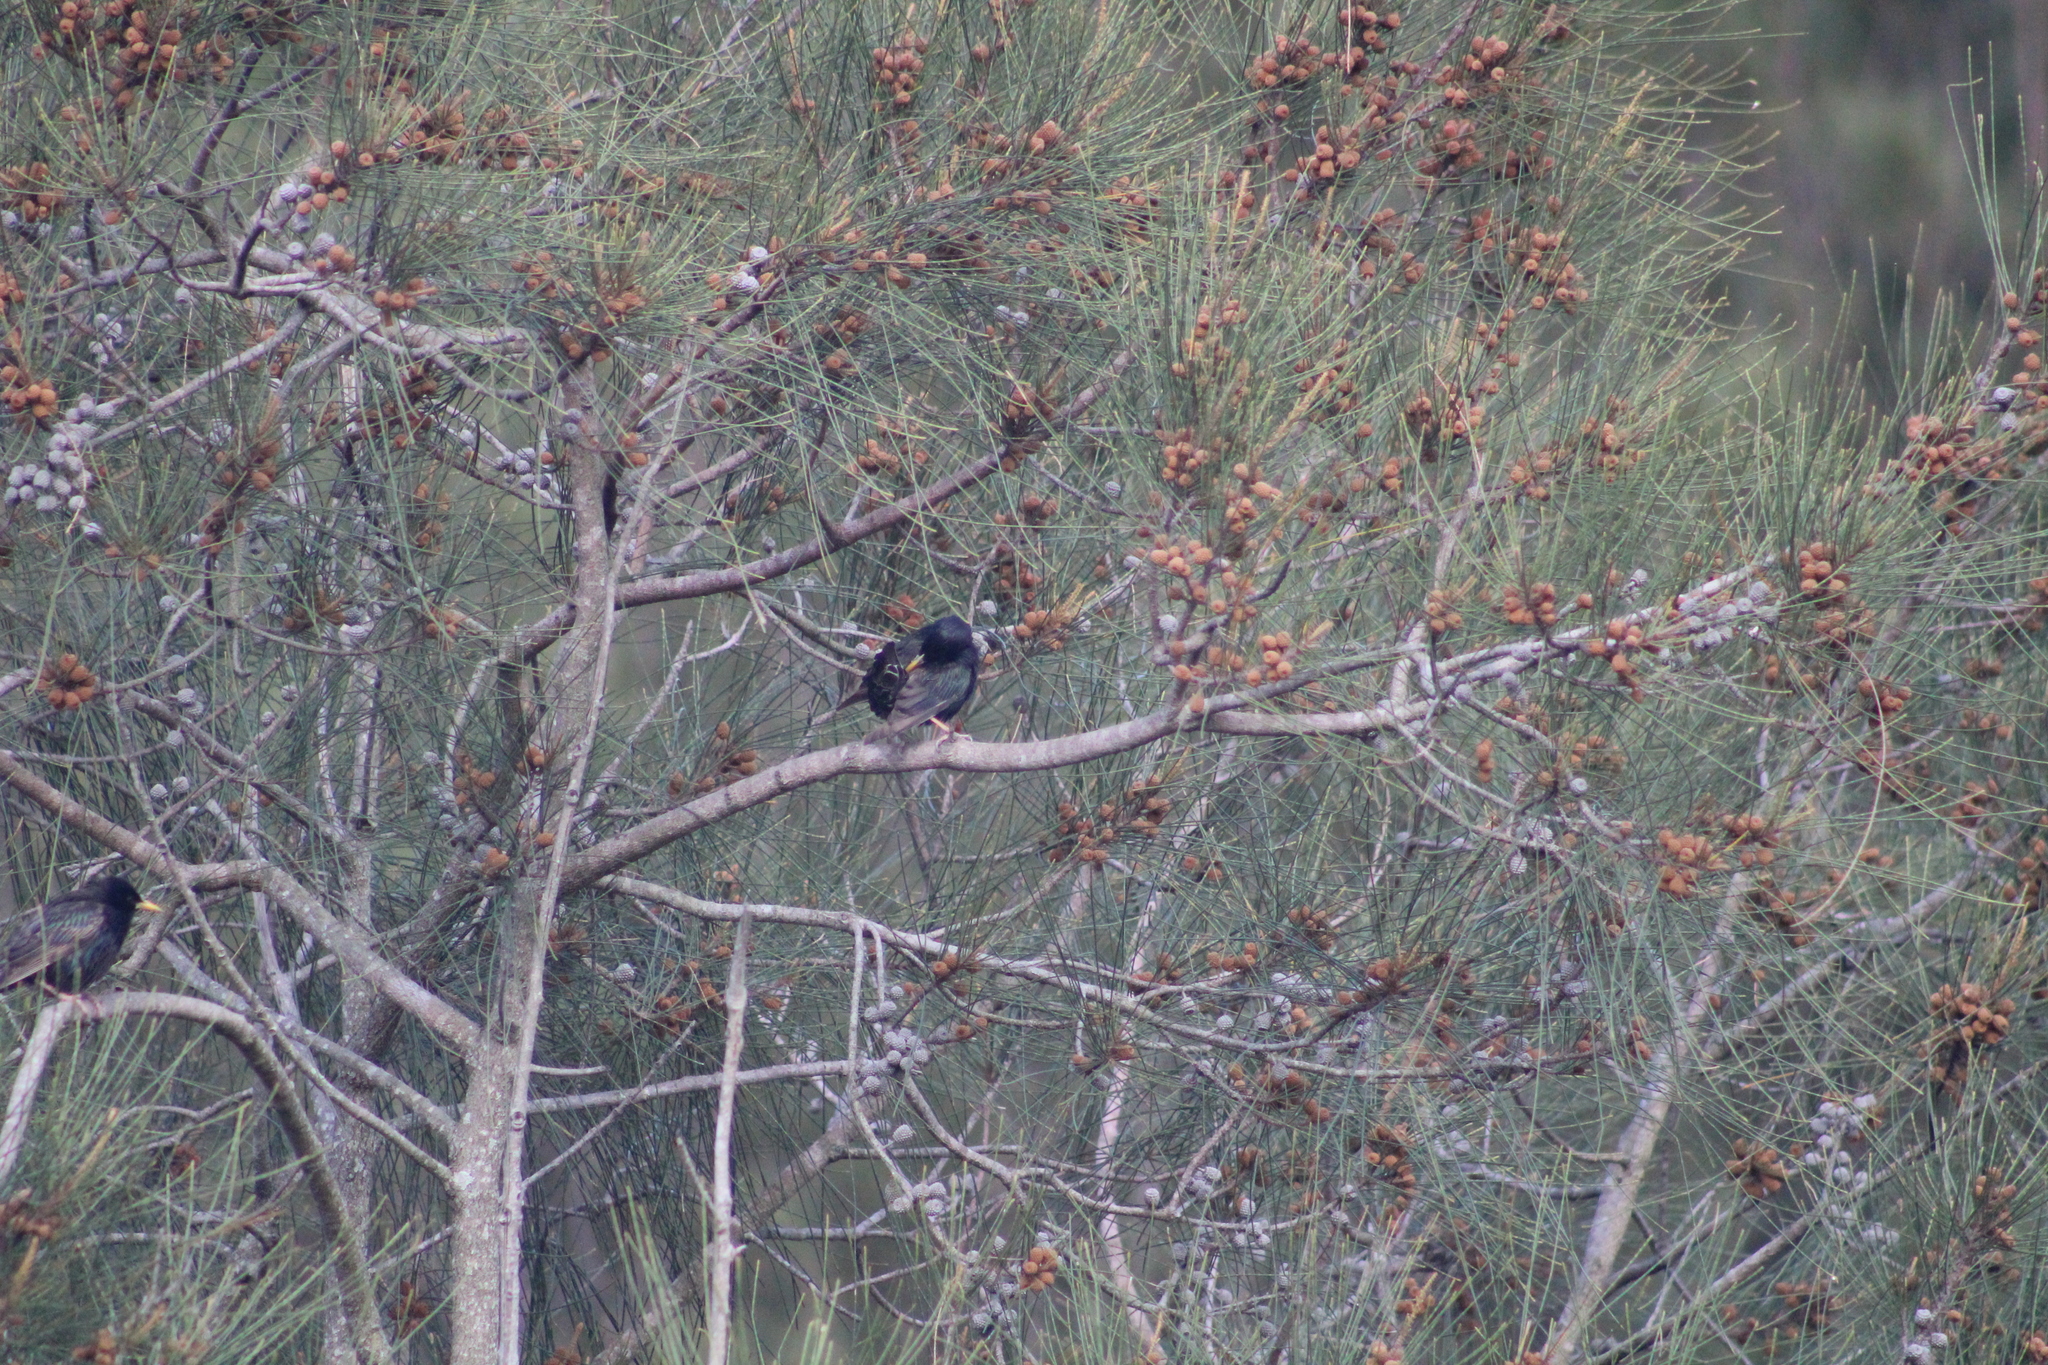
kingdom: Animalia
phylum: Chordata
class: Aves
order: Passeriformes
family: Sturnidae
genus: Sturnus
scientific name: Sturnus vulgaris
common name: Common starling
